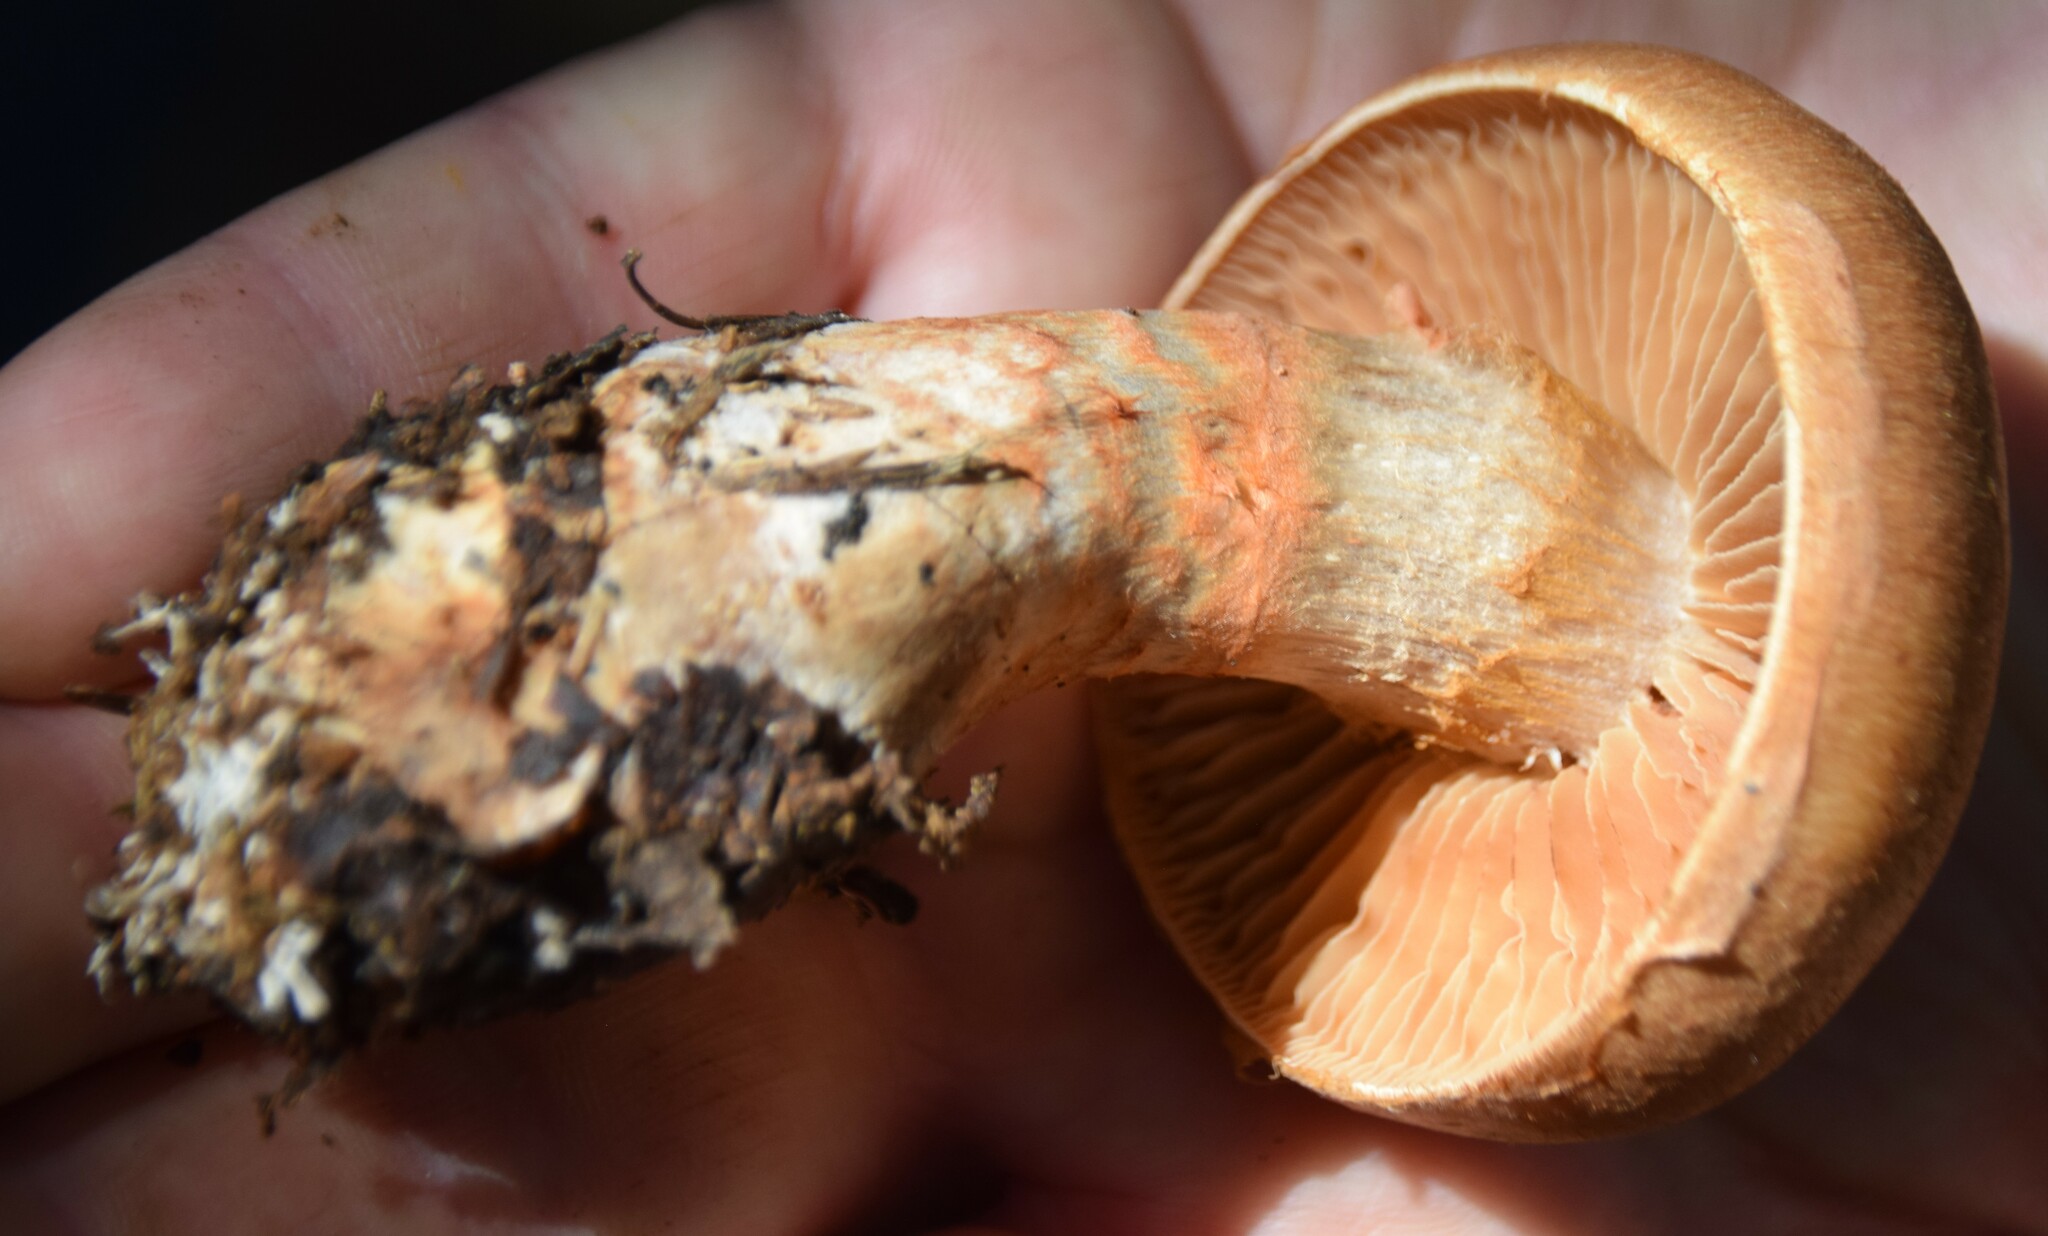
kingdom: Fungi
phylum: Basidiomycota
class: Agaricomycetes
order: Agaricales
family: Cortinariaceae
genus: Cortinarius
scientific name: Cortinarius armillatus
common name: Red banded webcap
